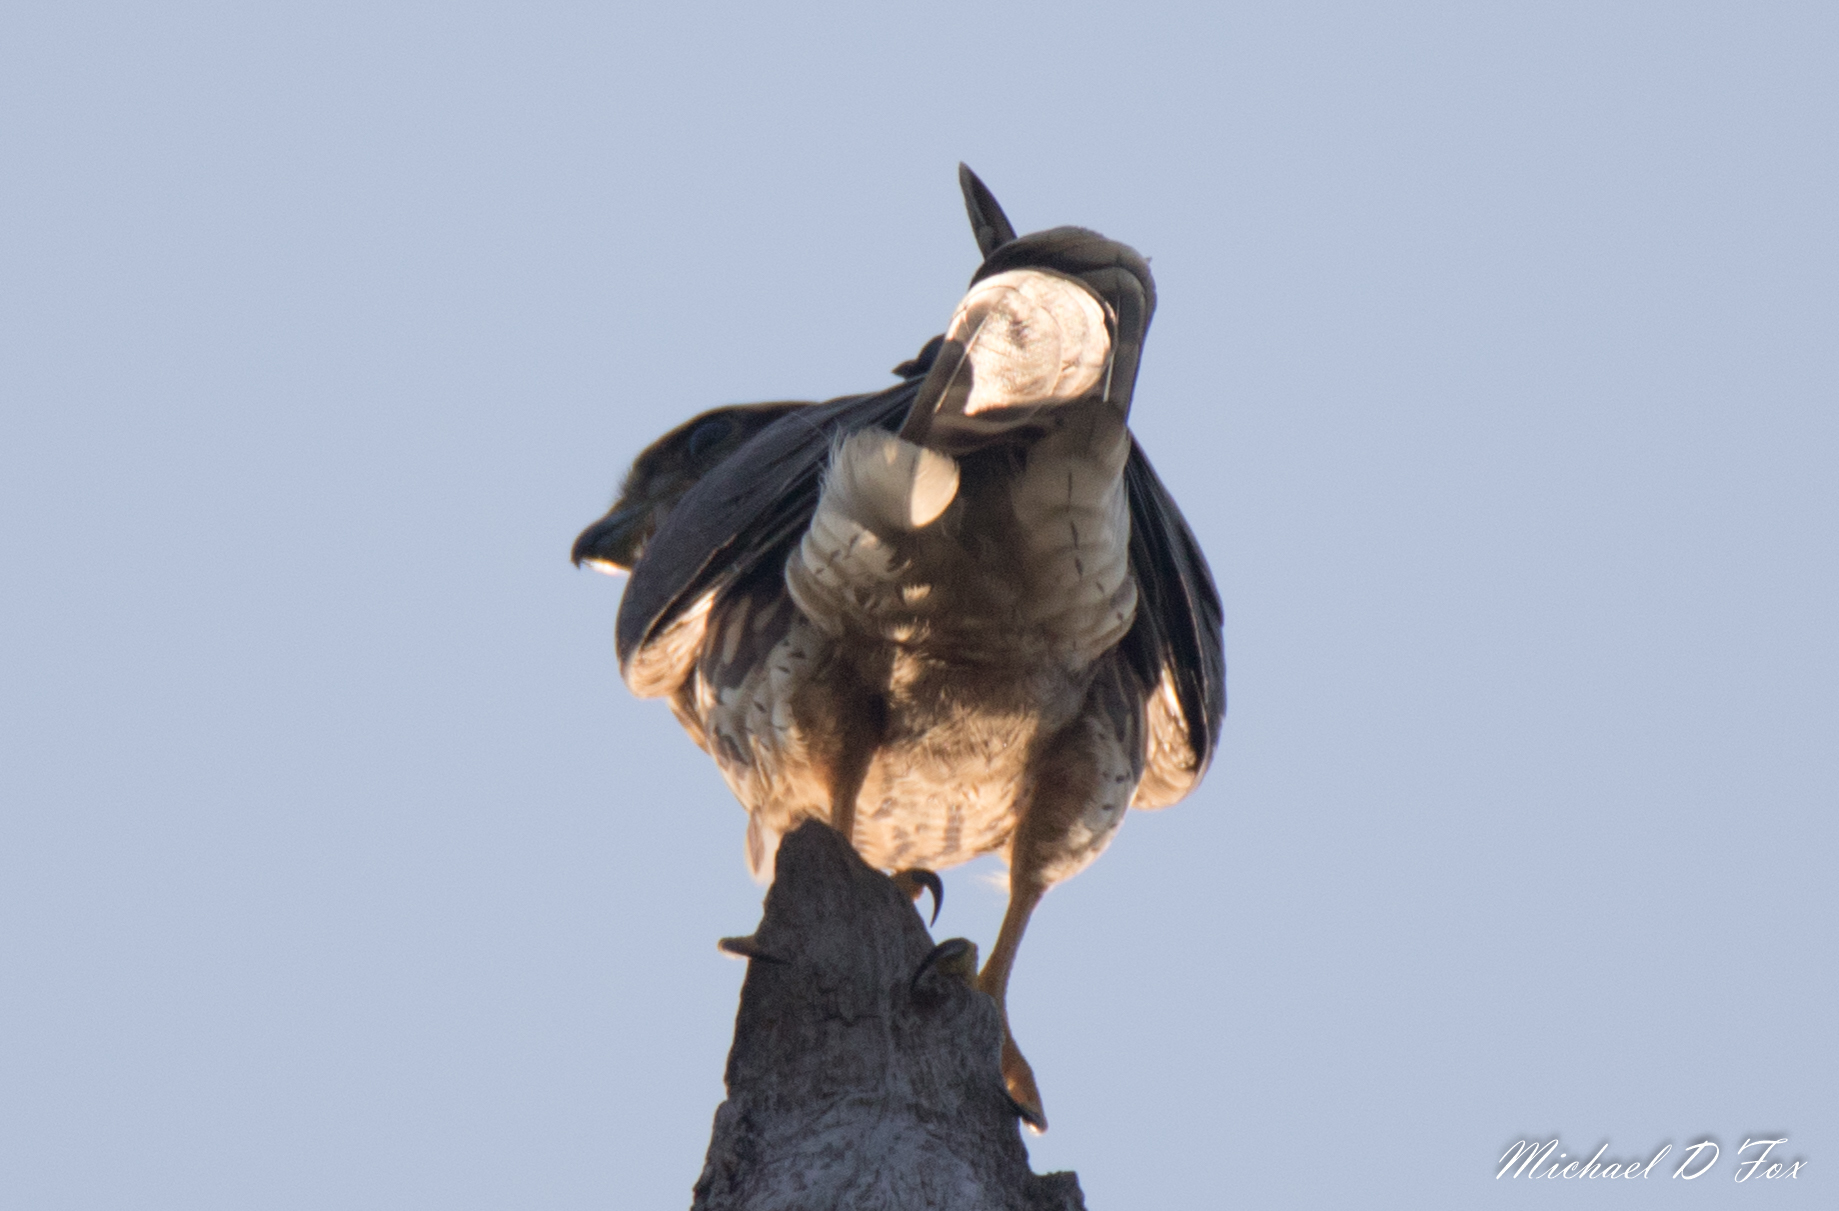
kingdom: Animalia
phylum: Chordata
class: Aves
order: Falconiformes
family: Falconidae
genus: Falco
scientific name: Falco sparverius
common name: American kestrel
